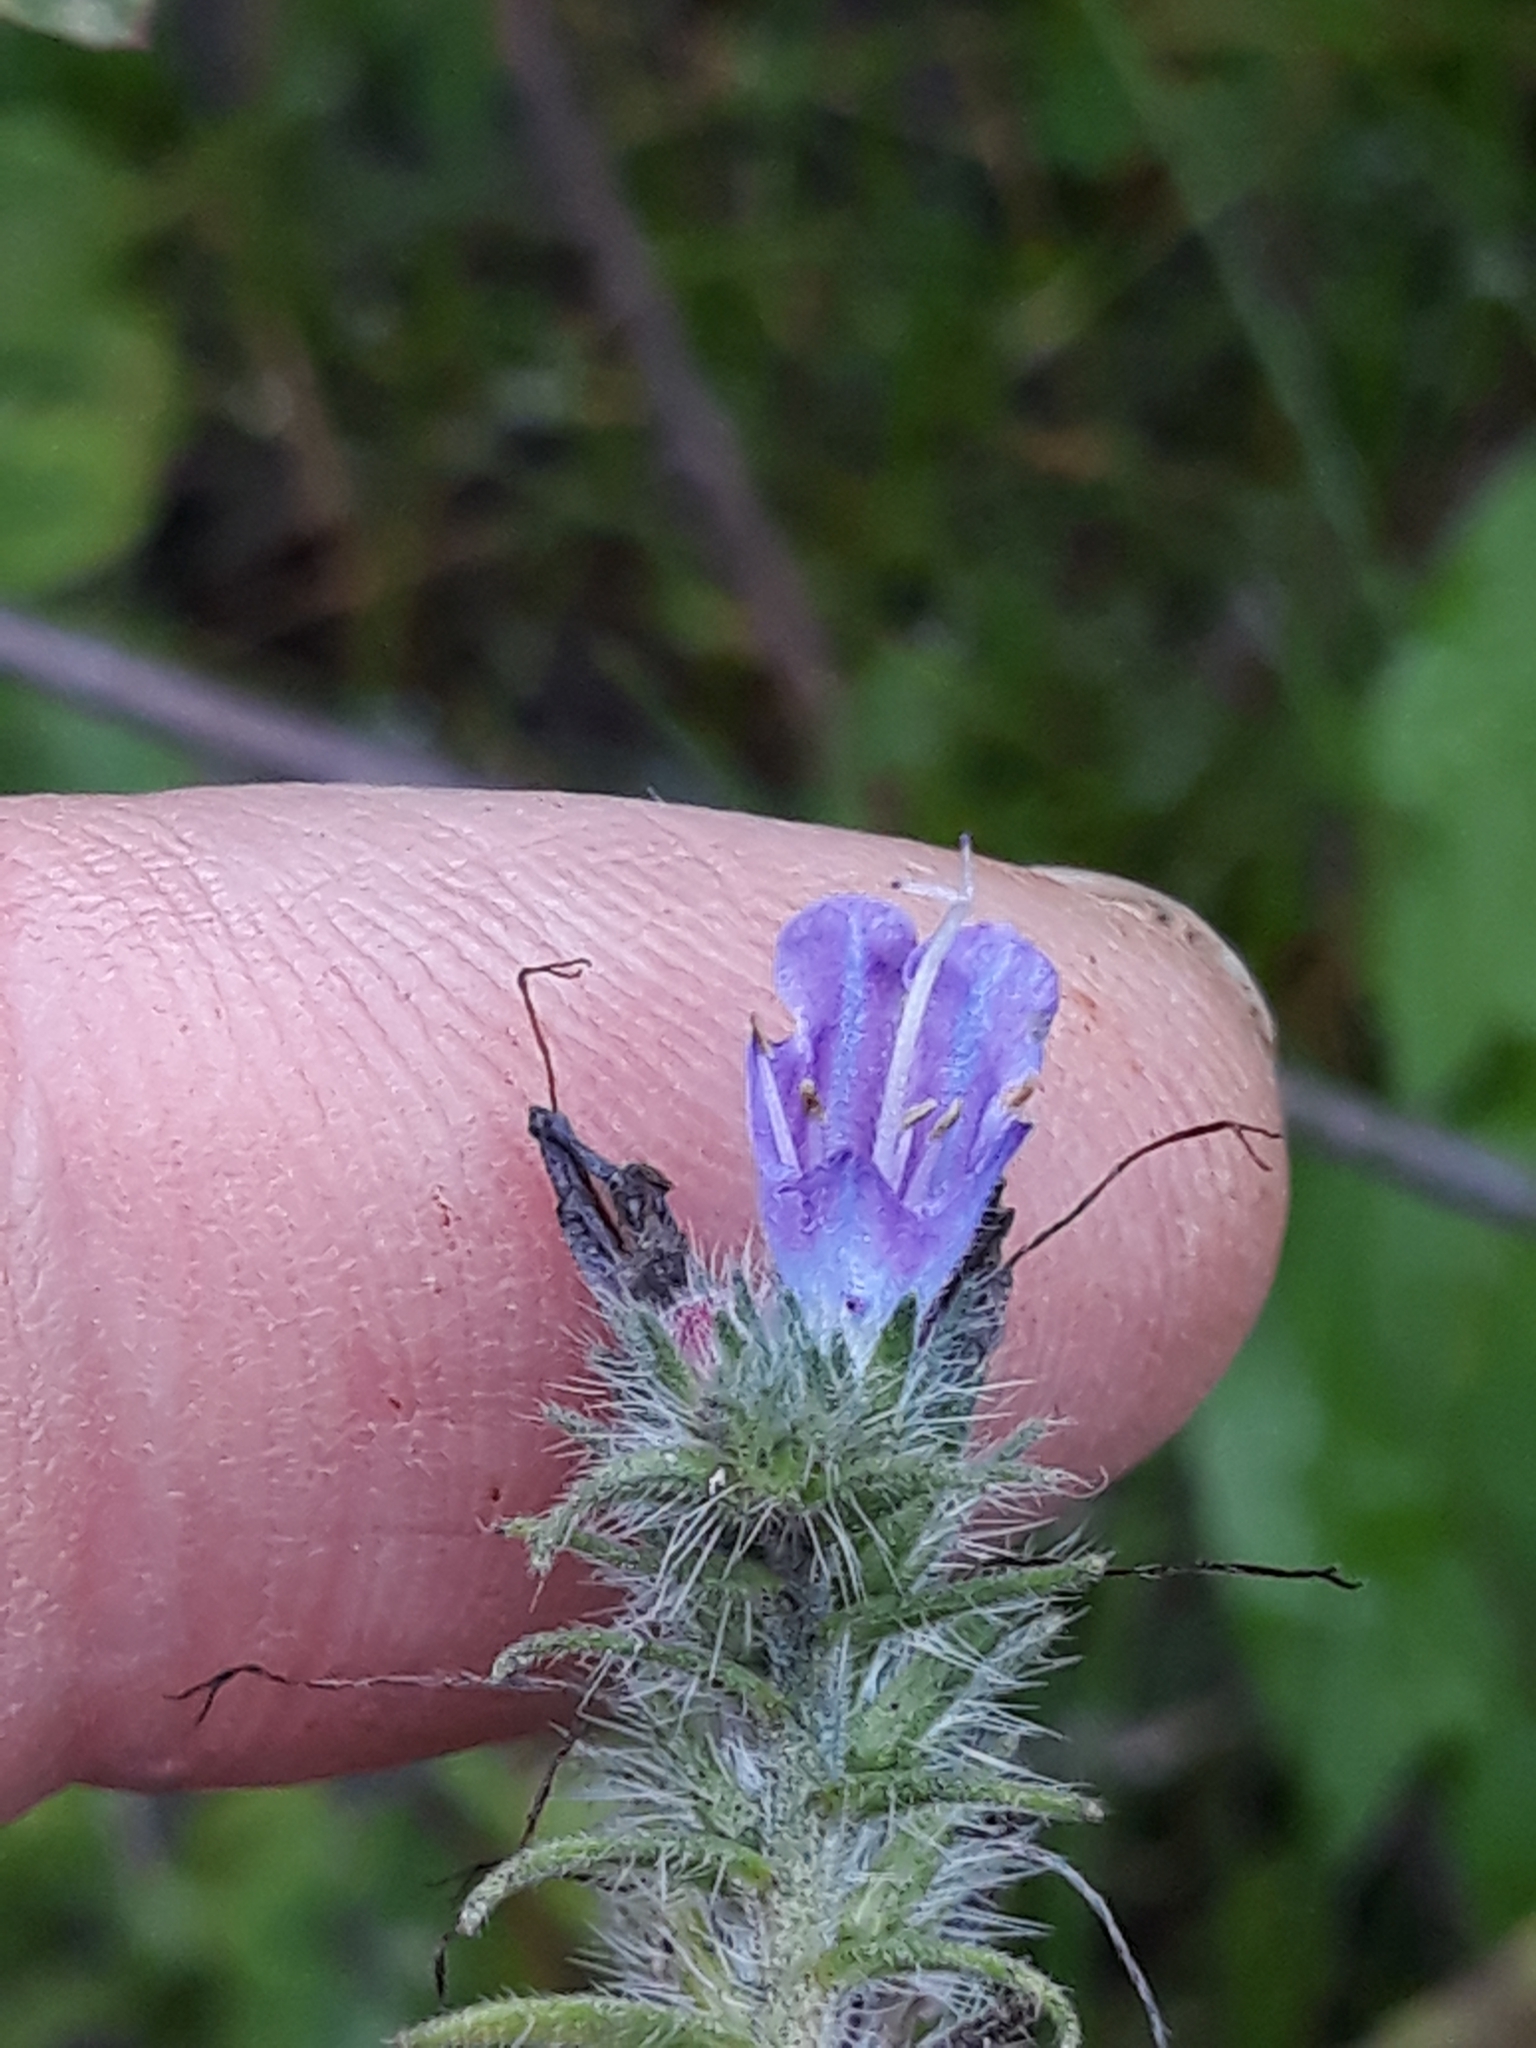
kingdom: Plantae
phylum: Tracheophyta
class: Magnoliopsida
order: Boraginales
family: Boraginaceae
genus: Echium
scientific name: Echium vulgare
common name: Common viper's bugloss
